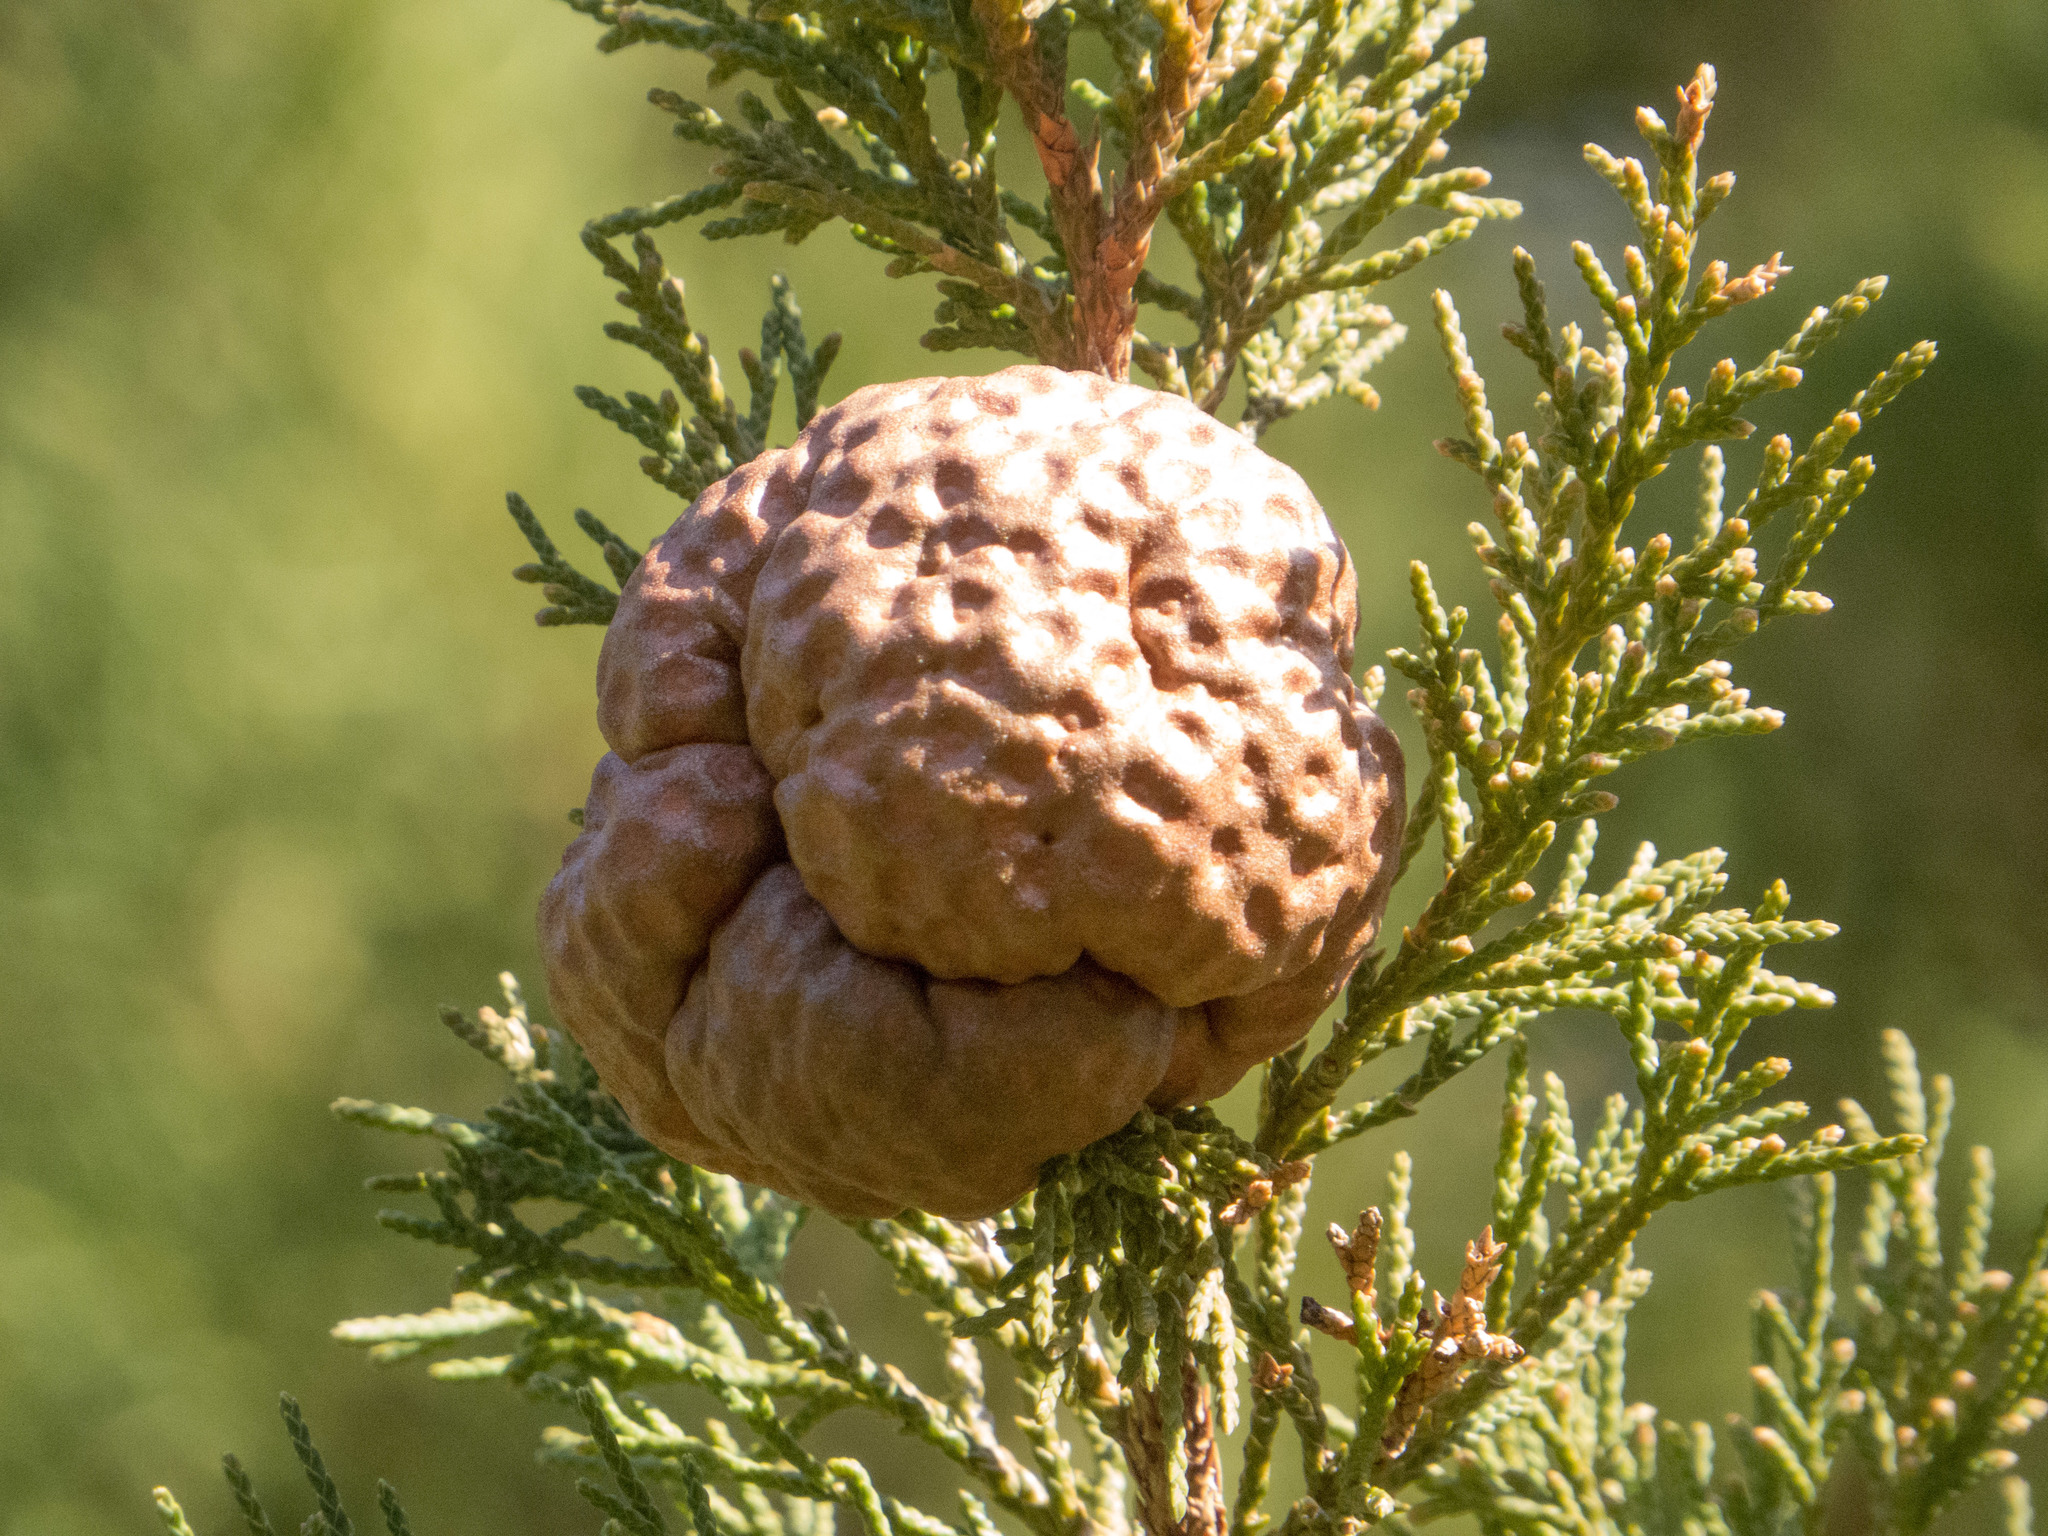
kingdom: Fungi
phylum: Basidiomycota
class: Pucciniomycetes
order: Pucciniales
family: Gymnosporangiaceae
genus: Gymnosporangium
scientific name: Gymnosporangium juniperi-virginianae
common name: Juniper-apple rust
